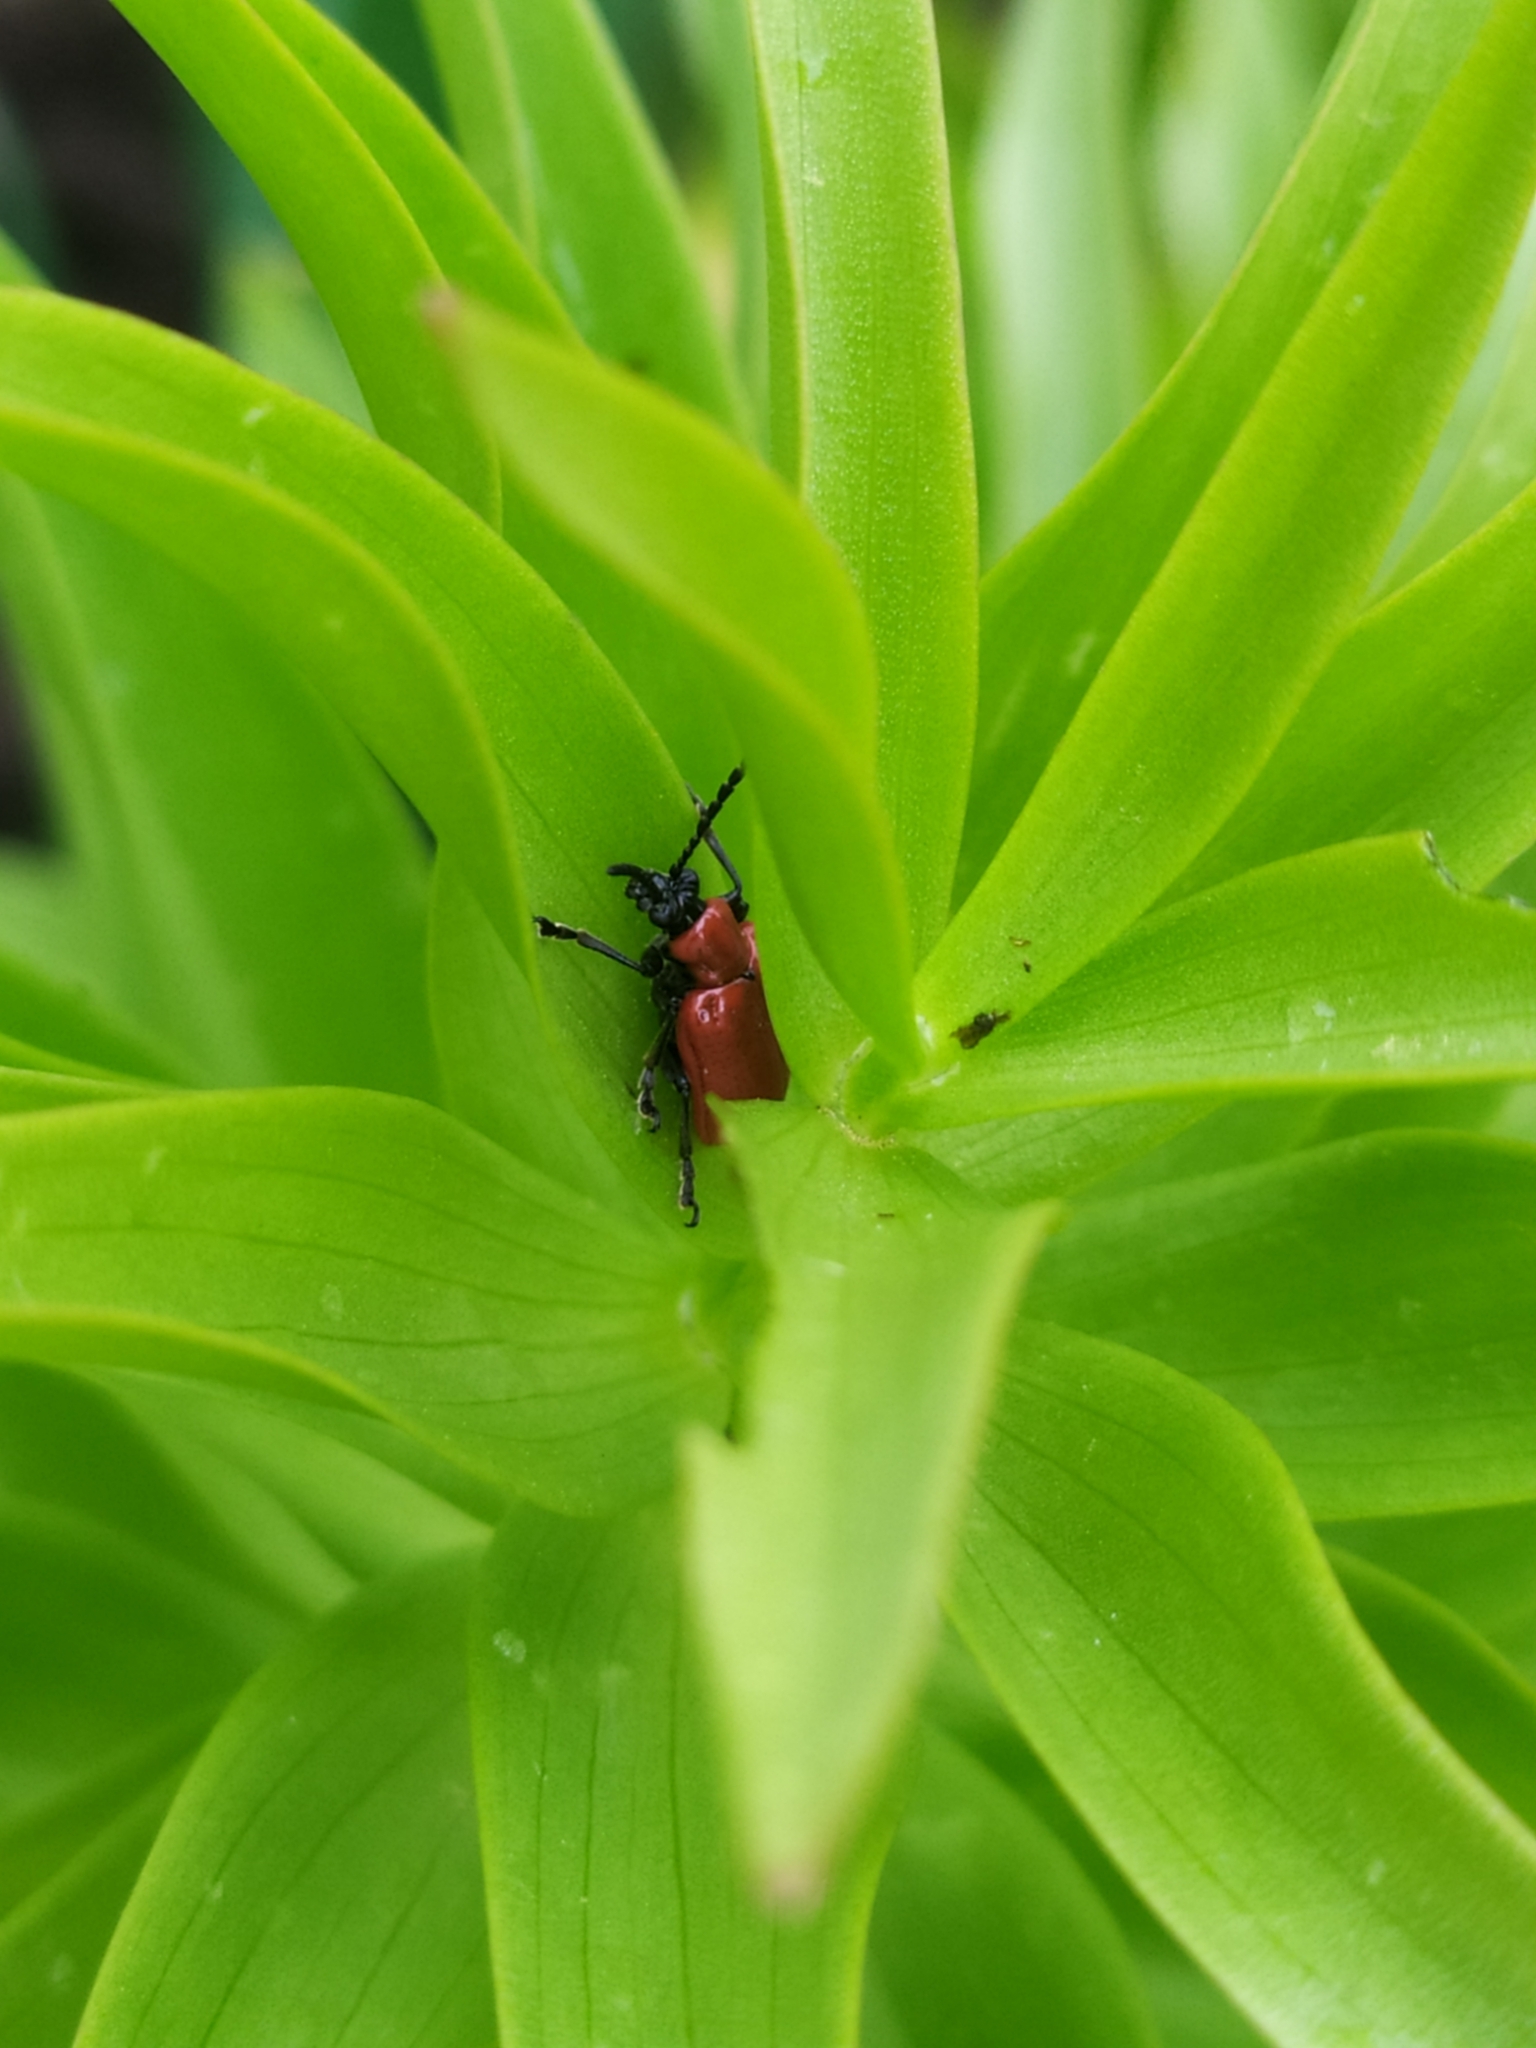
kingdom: Animalia
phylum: Arthropoda
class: Insecta
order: Coleoptera
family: Chrysomelidae
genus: Lilioceris
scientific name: Lilioceris lilii
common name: Lily beetle
